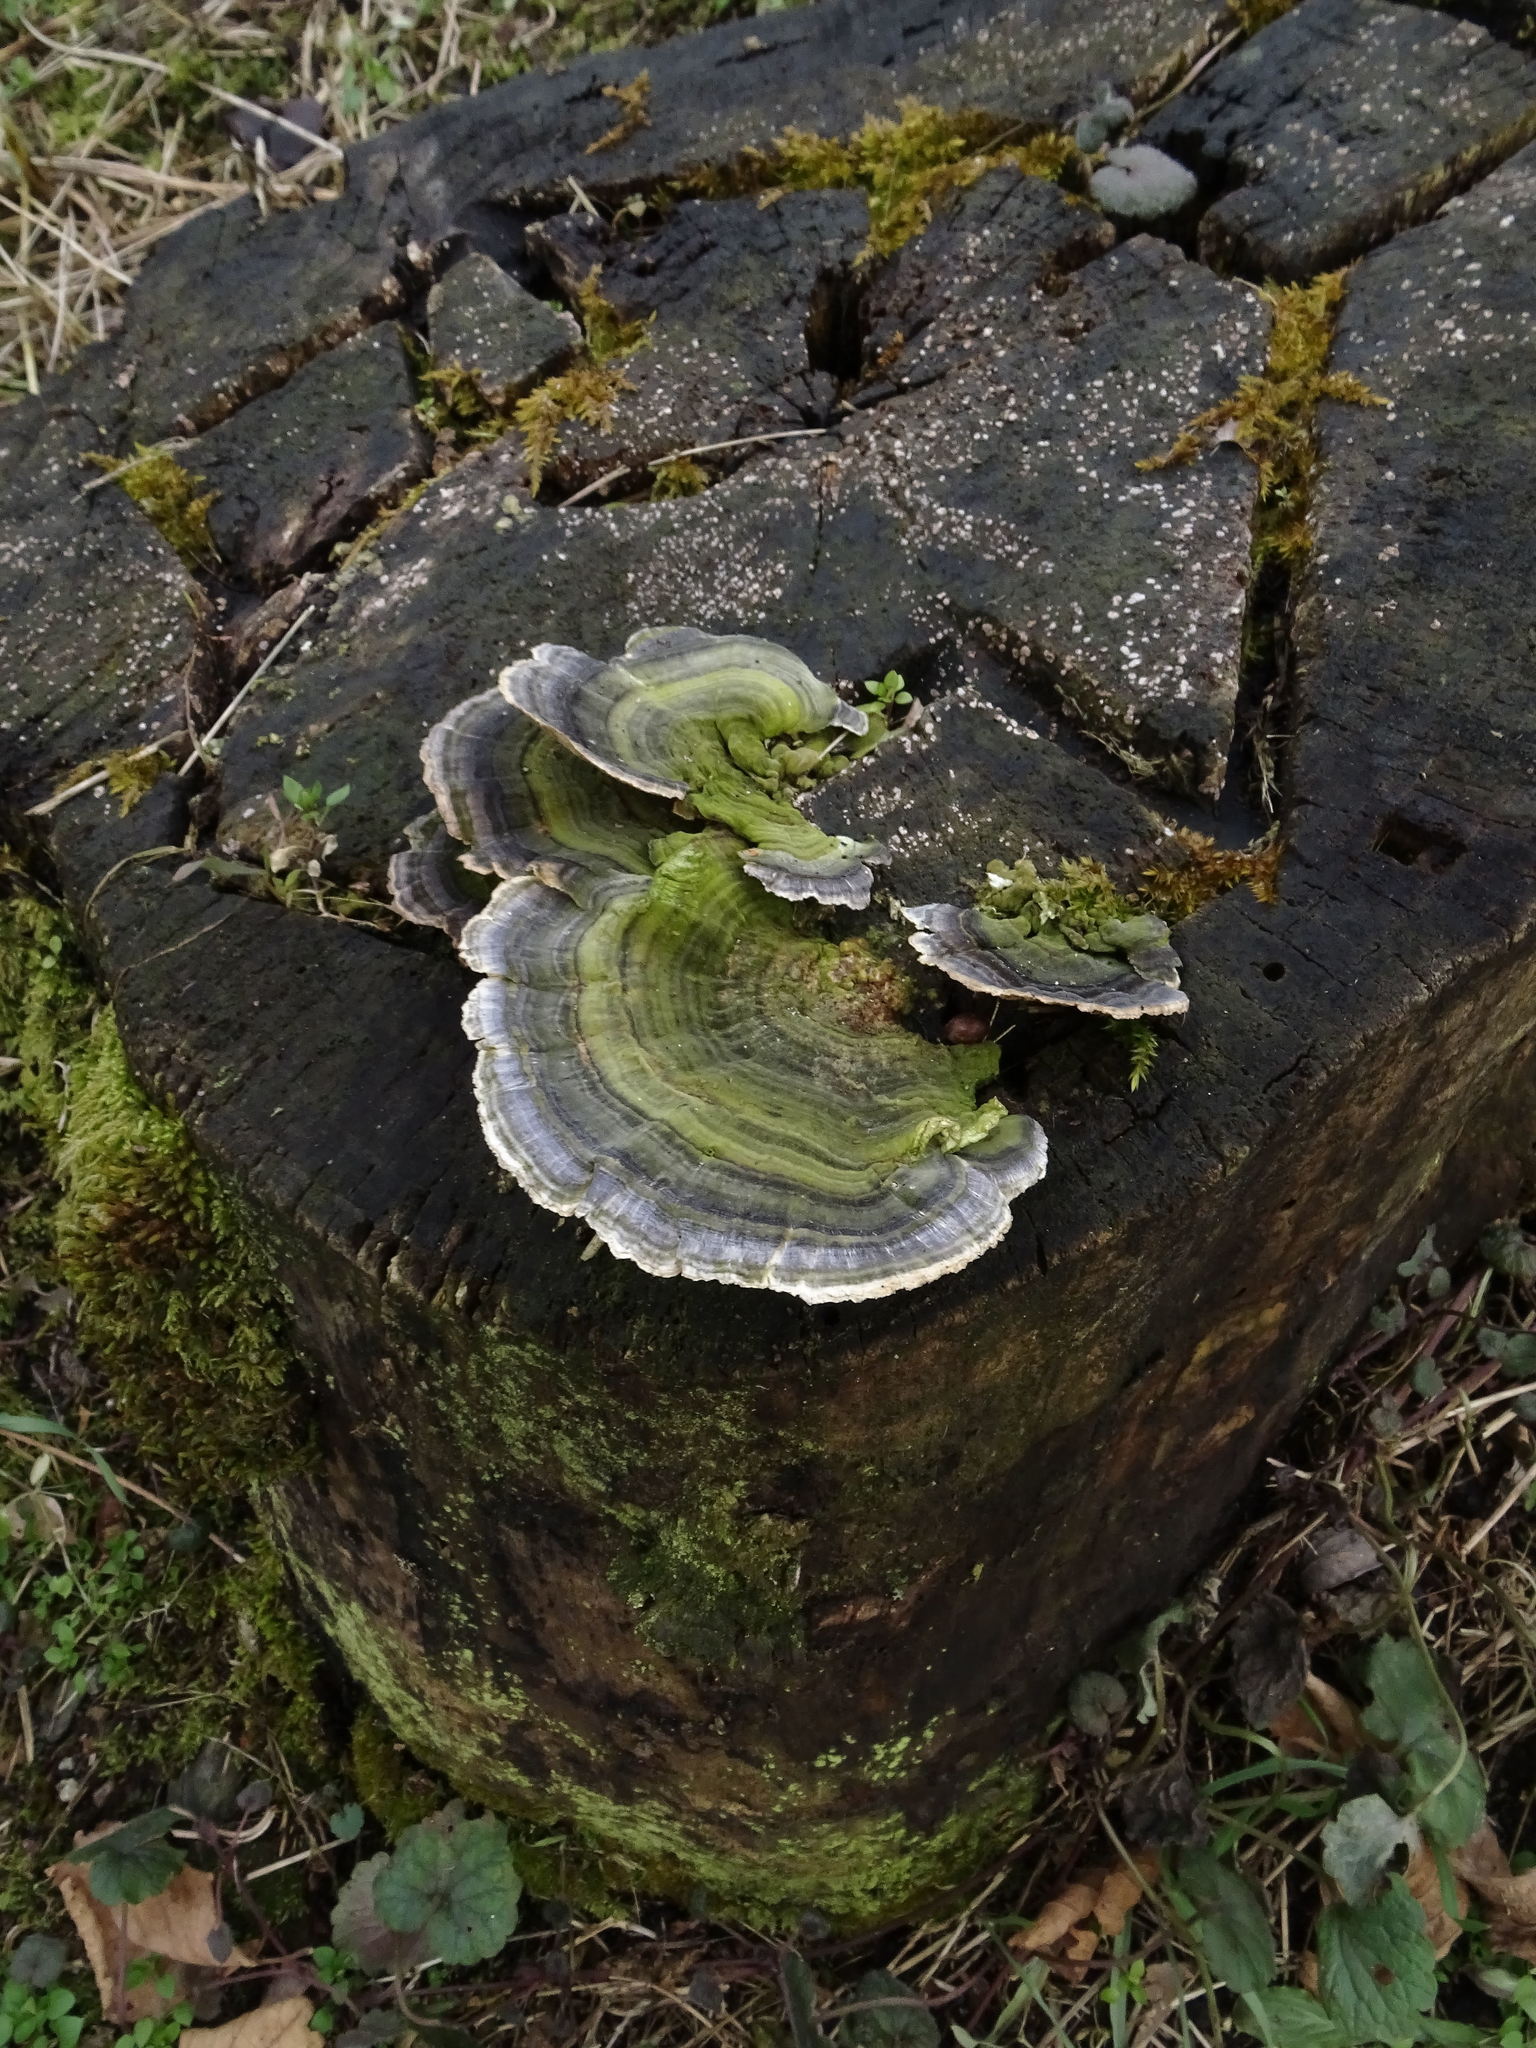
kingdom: Fungi
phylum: Basidiomycota
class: Agaricomycetes
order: Polyporales
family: Polyporaceae
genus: Trametes
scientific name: Trametes versicolor
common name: Turkeytail
